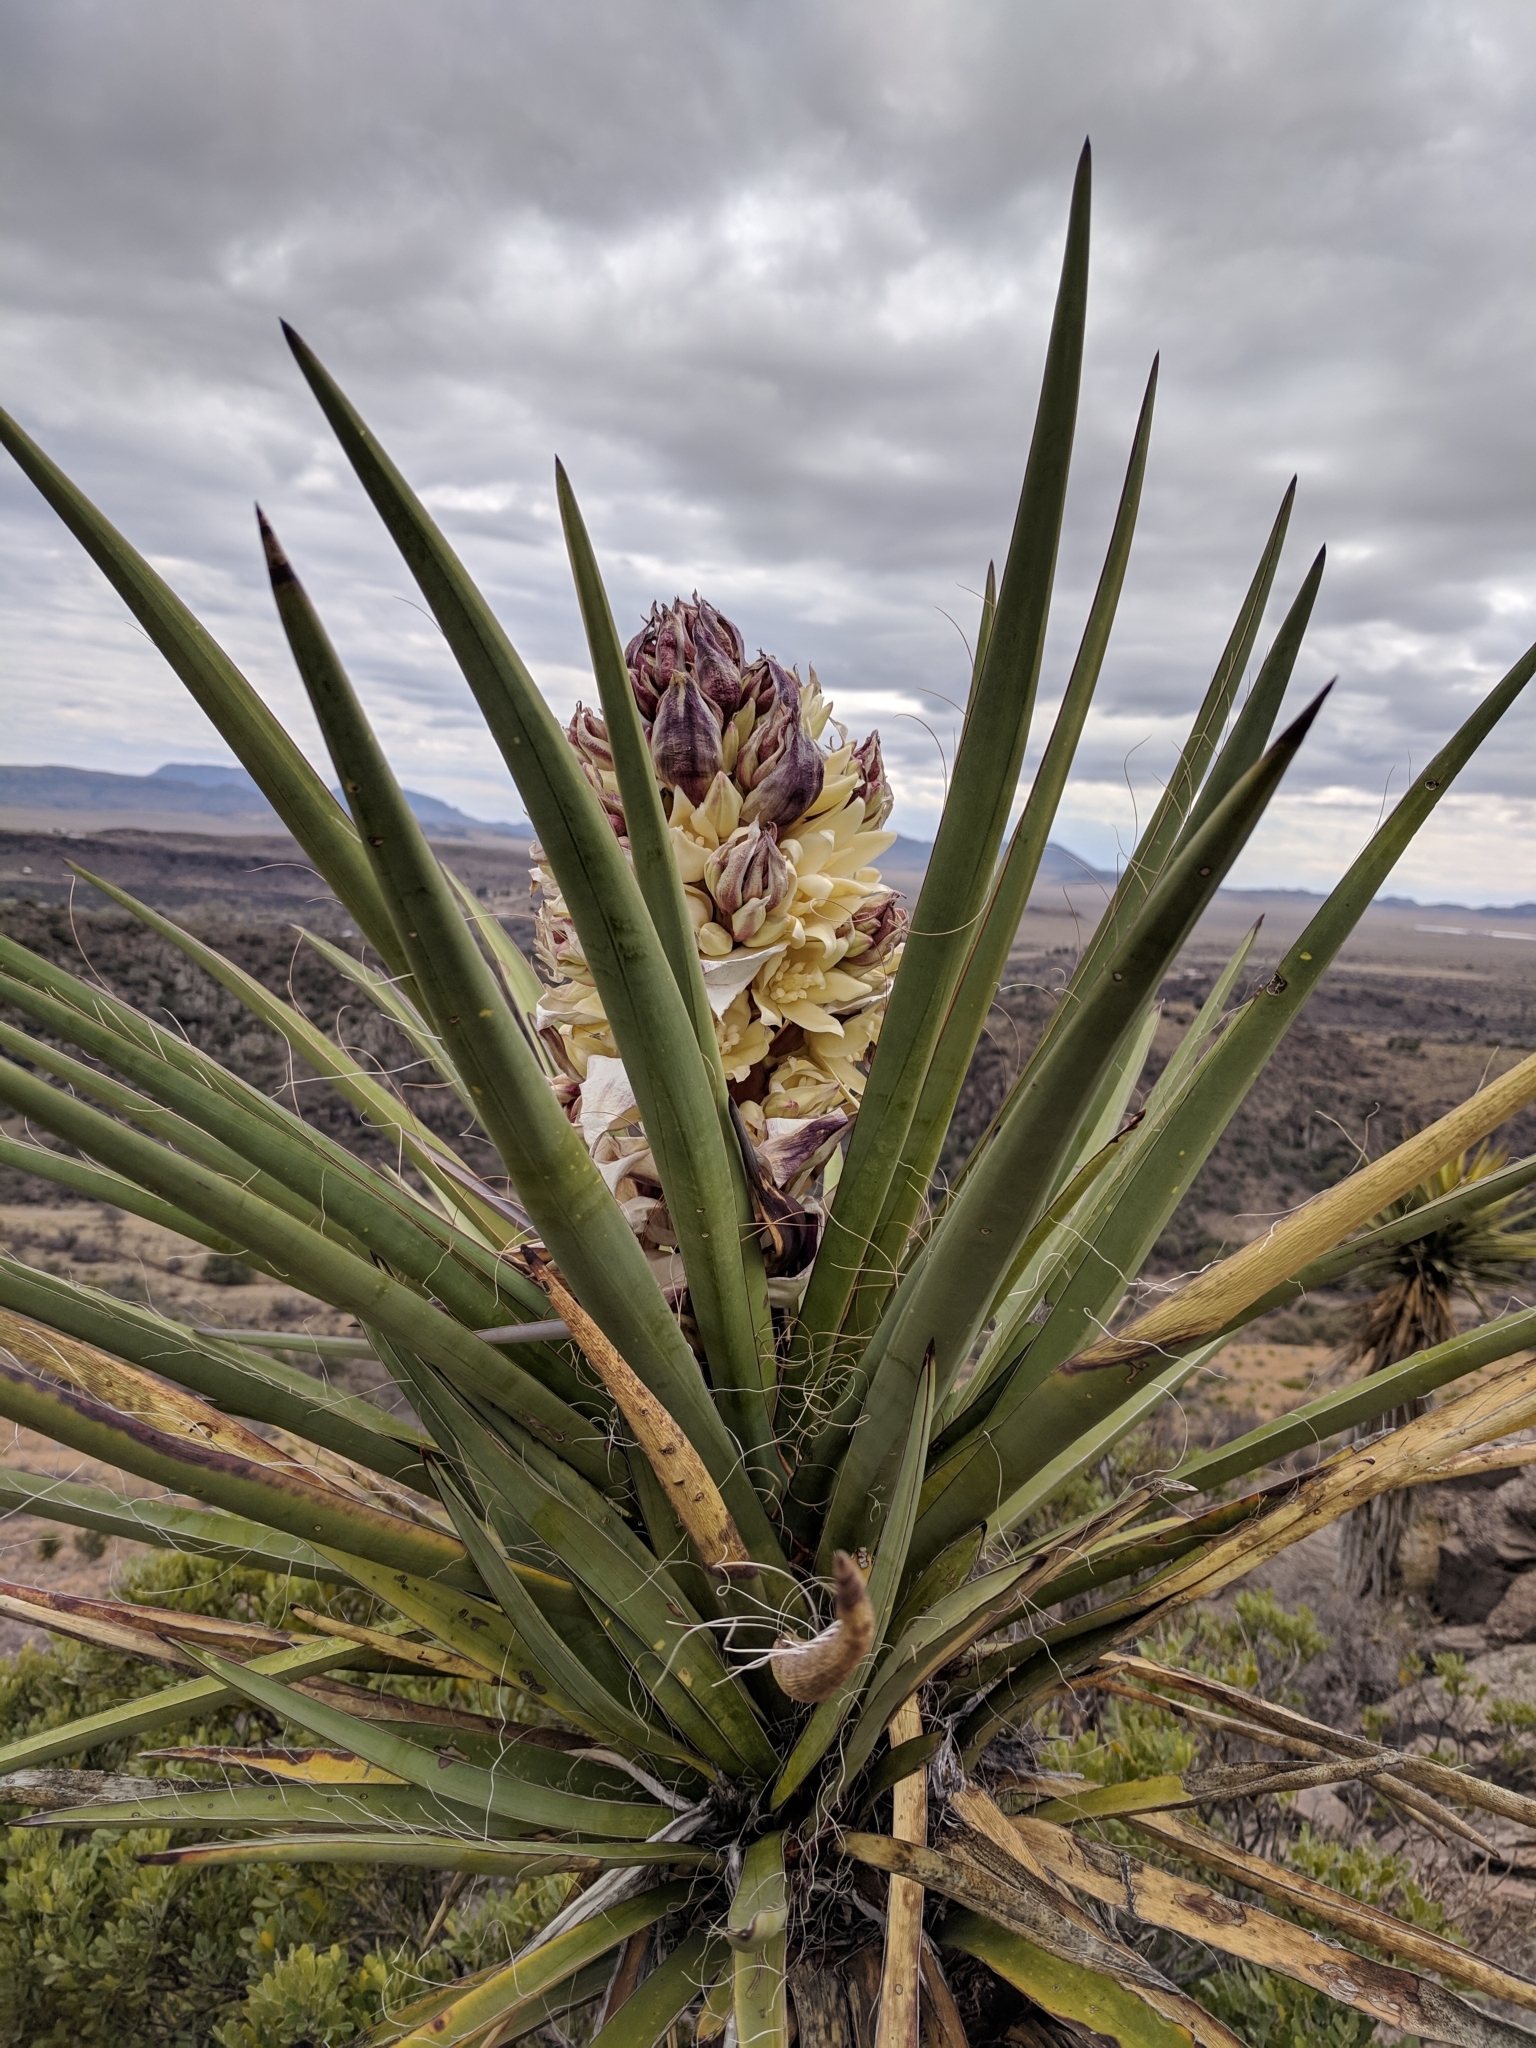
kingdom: Plantae
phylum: Tracheophyta
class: Liliopsida
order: Asparagales
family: Asparagaceae
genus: Yucca
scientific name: Yucca treculiana
